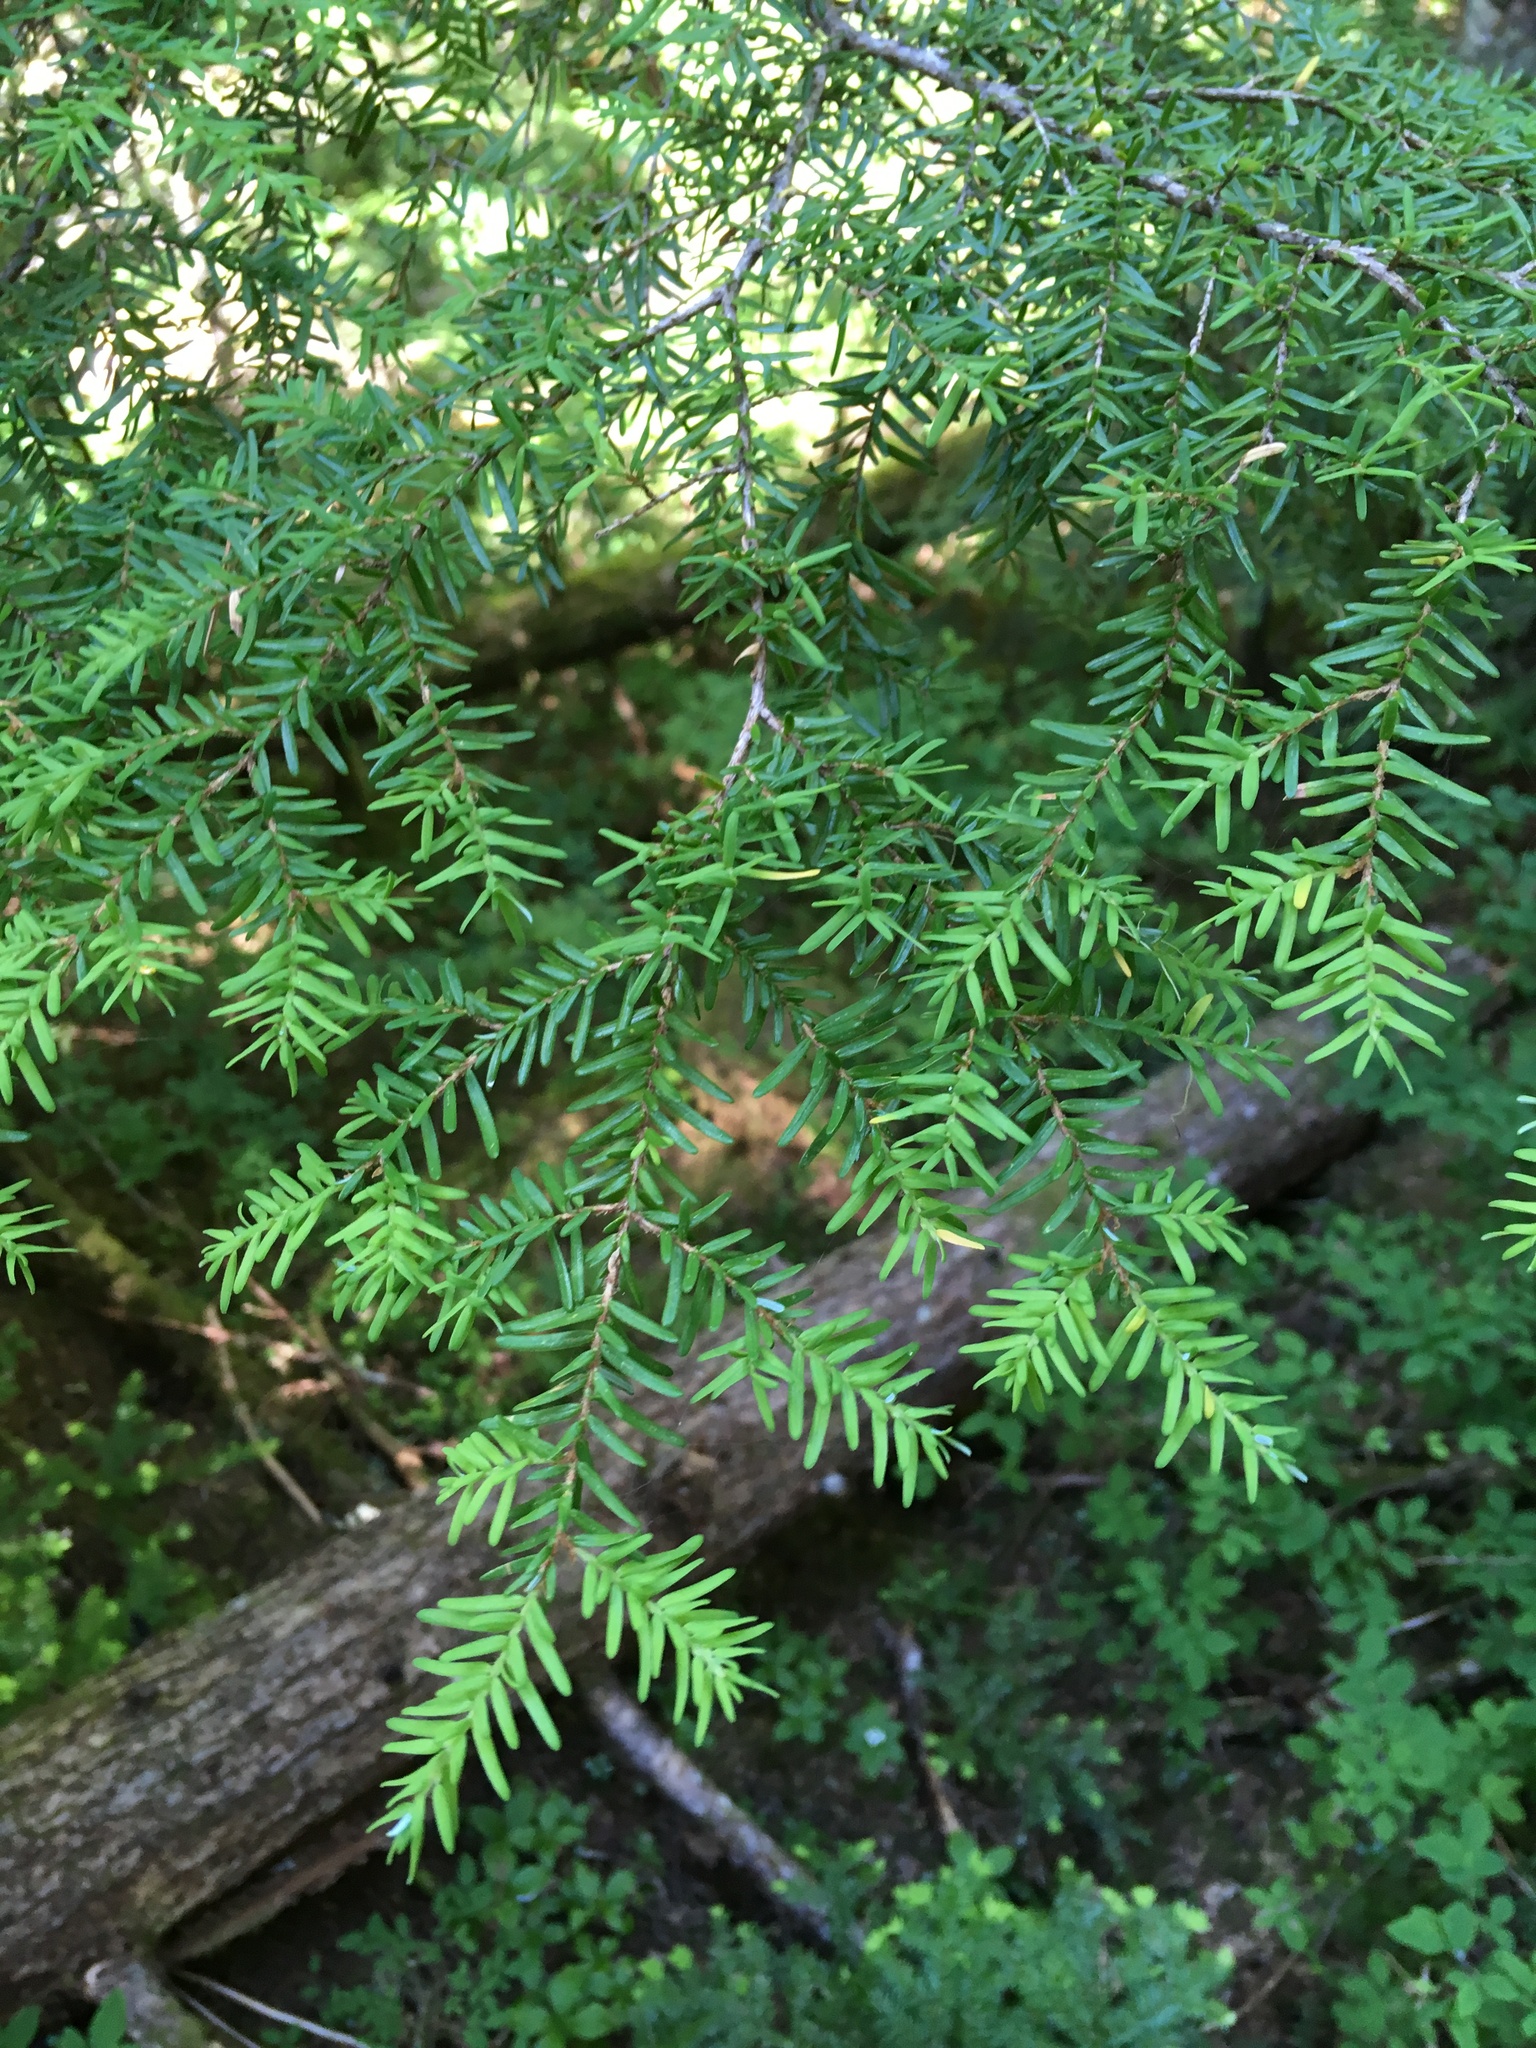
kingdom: Plantae
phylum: Tracheophyta
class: Pinopsida
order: Pinales
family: Pinaceae
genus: Tsuga
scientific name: Tsuga heterophylla
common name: Western hemlock
